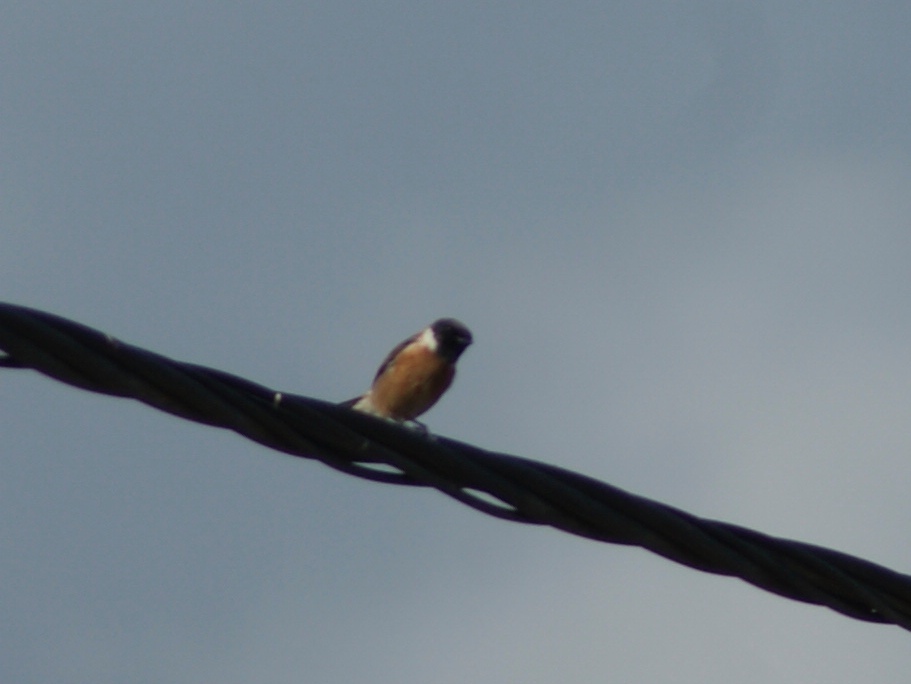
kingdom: Animalia
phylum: Chordata
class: Aves
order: Passeriformes
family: Muscicapidae
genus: Saxicola
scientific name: Saxicola rubicola
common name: European stonechat
